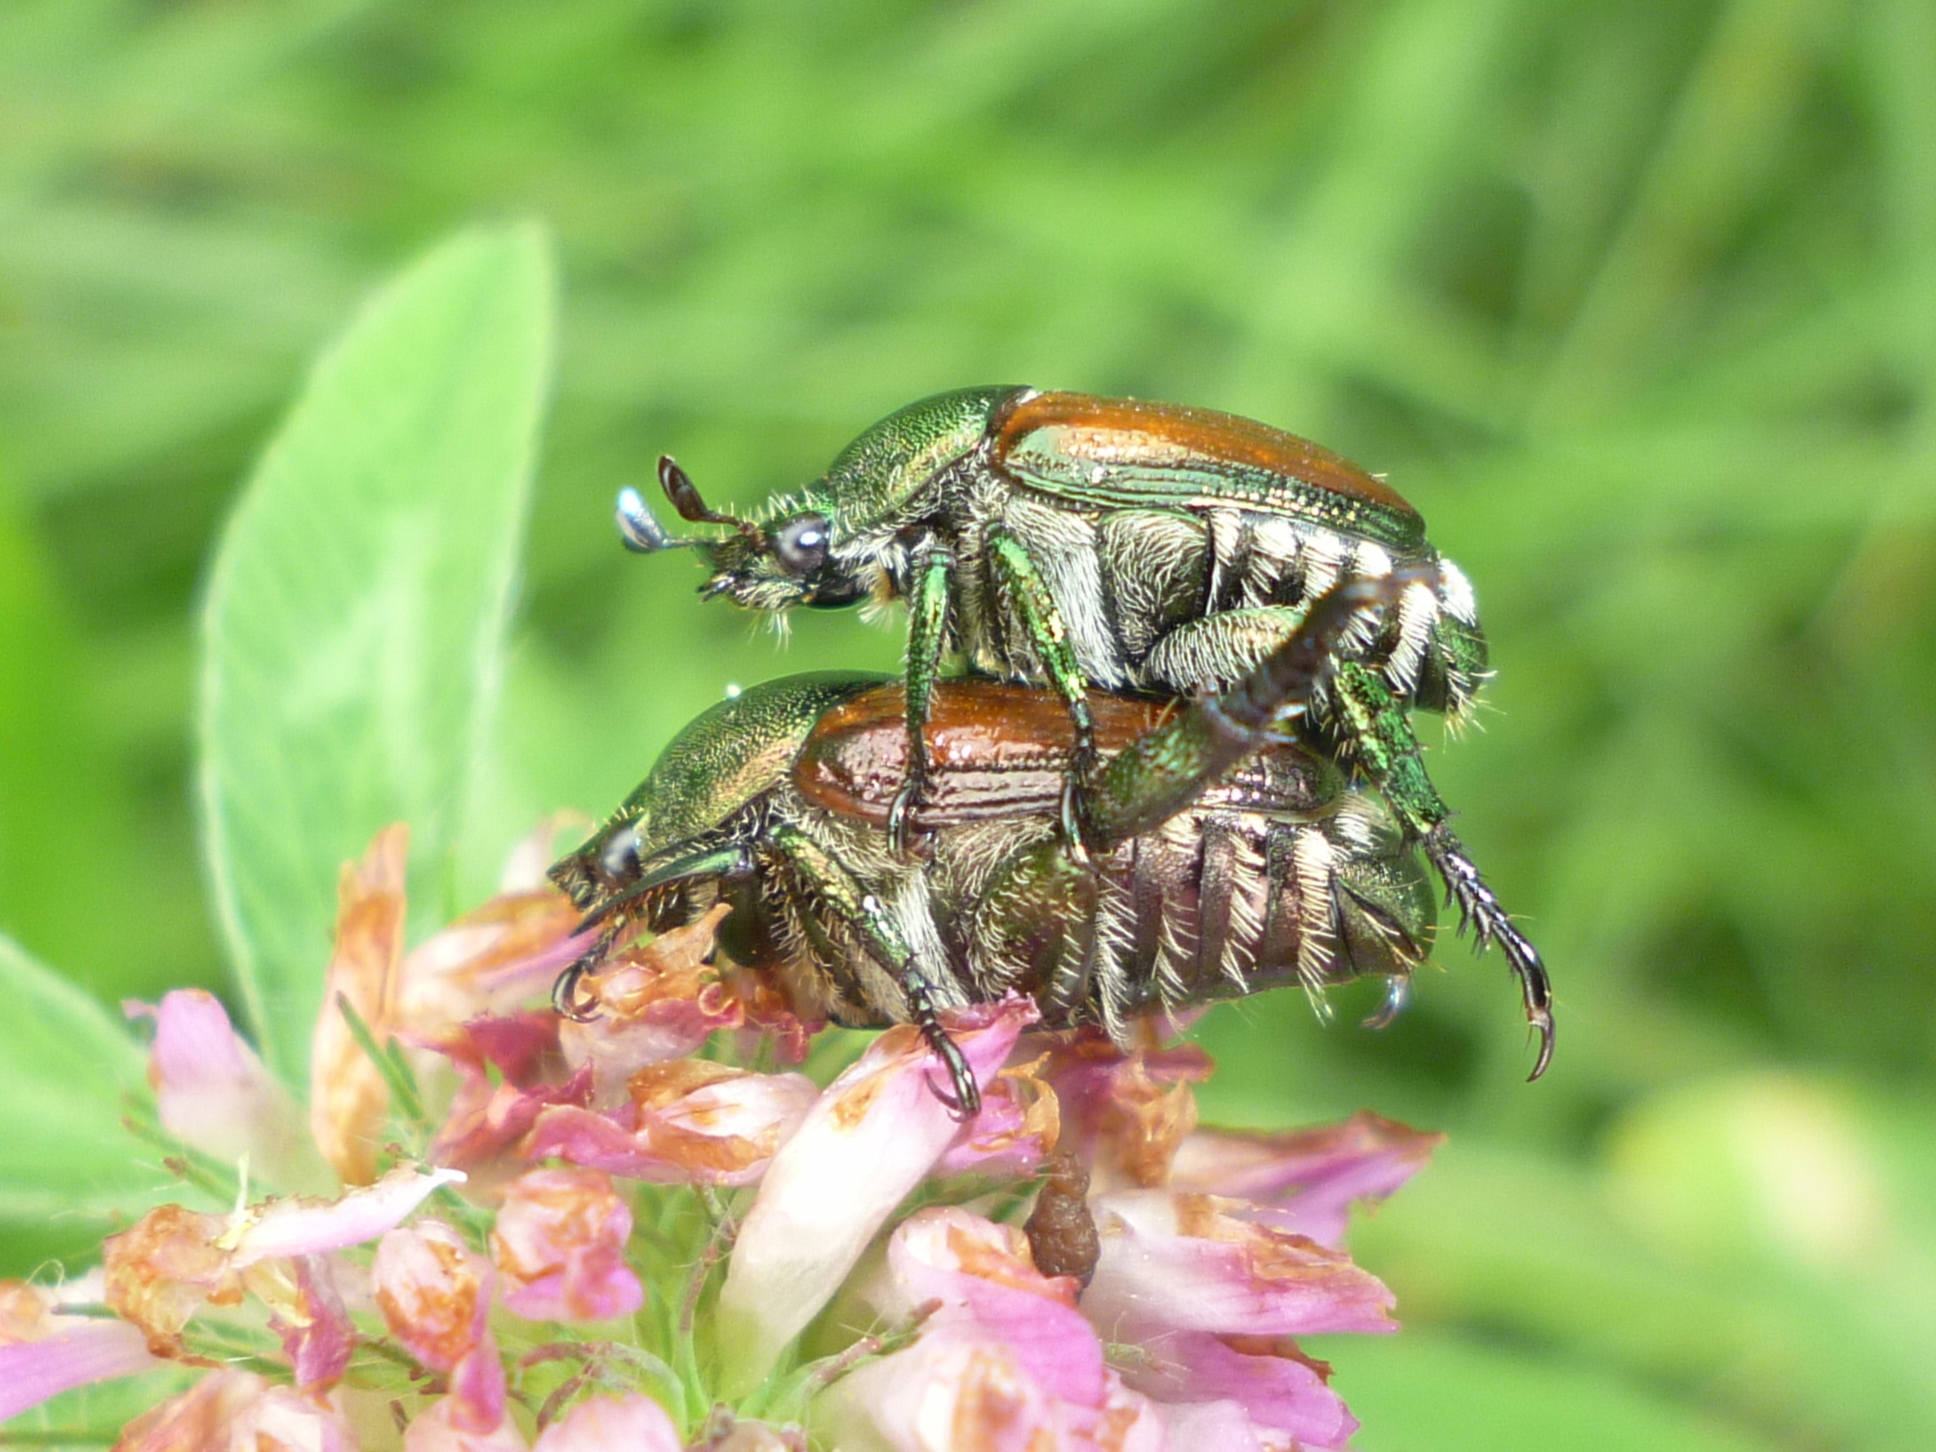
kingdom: Animalia
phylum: Arthropoda
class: Insecta
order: Coleoptera
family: Scarabaeidae
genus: Popillia
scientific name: Popillia japonica
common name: Japanese beetle
